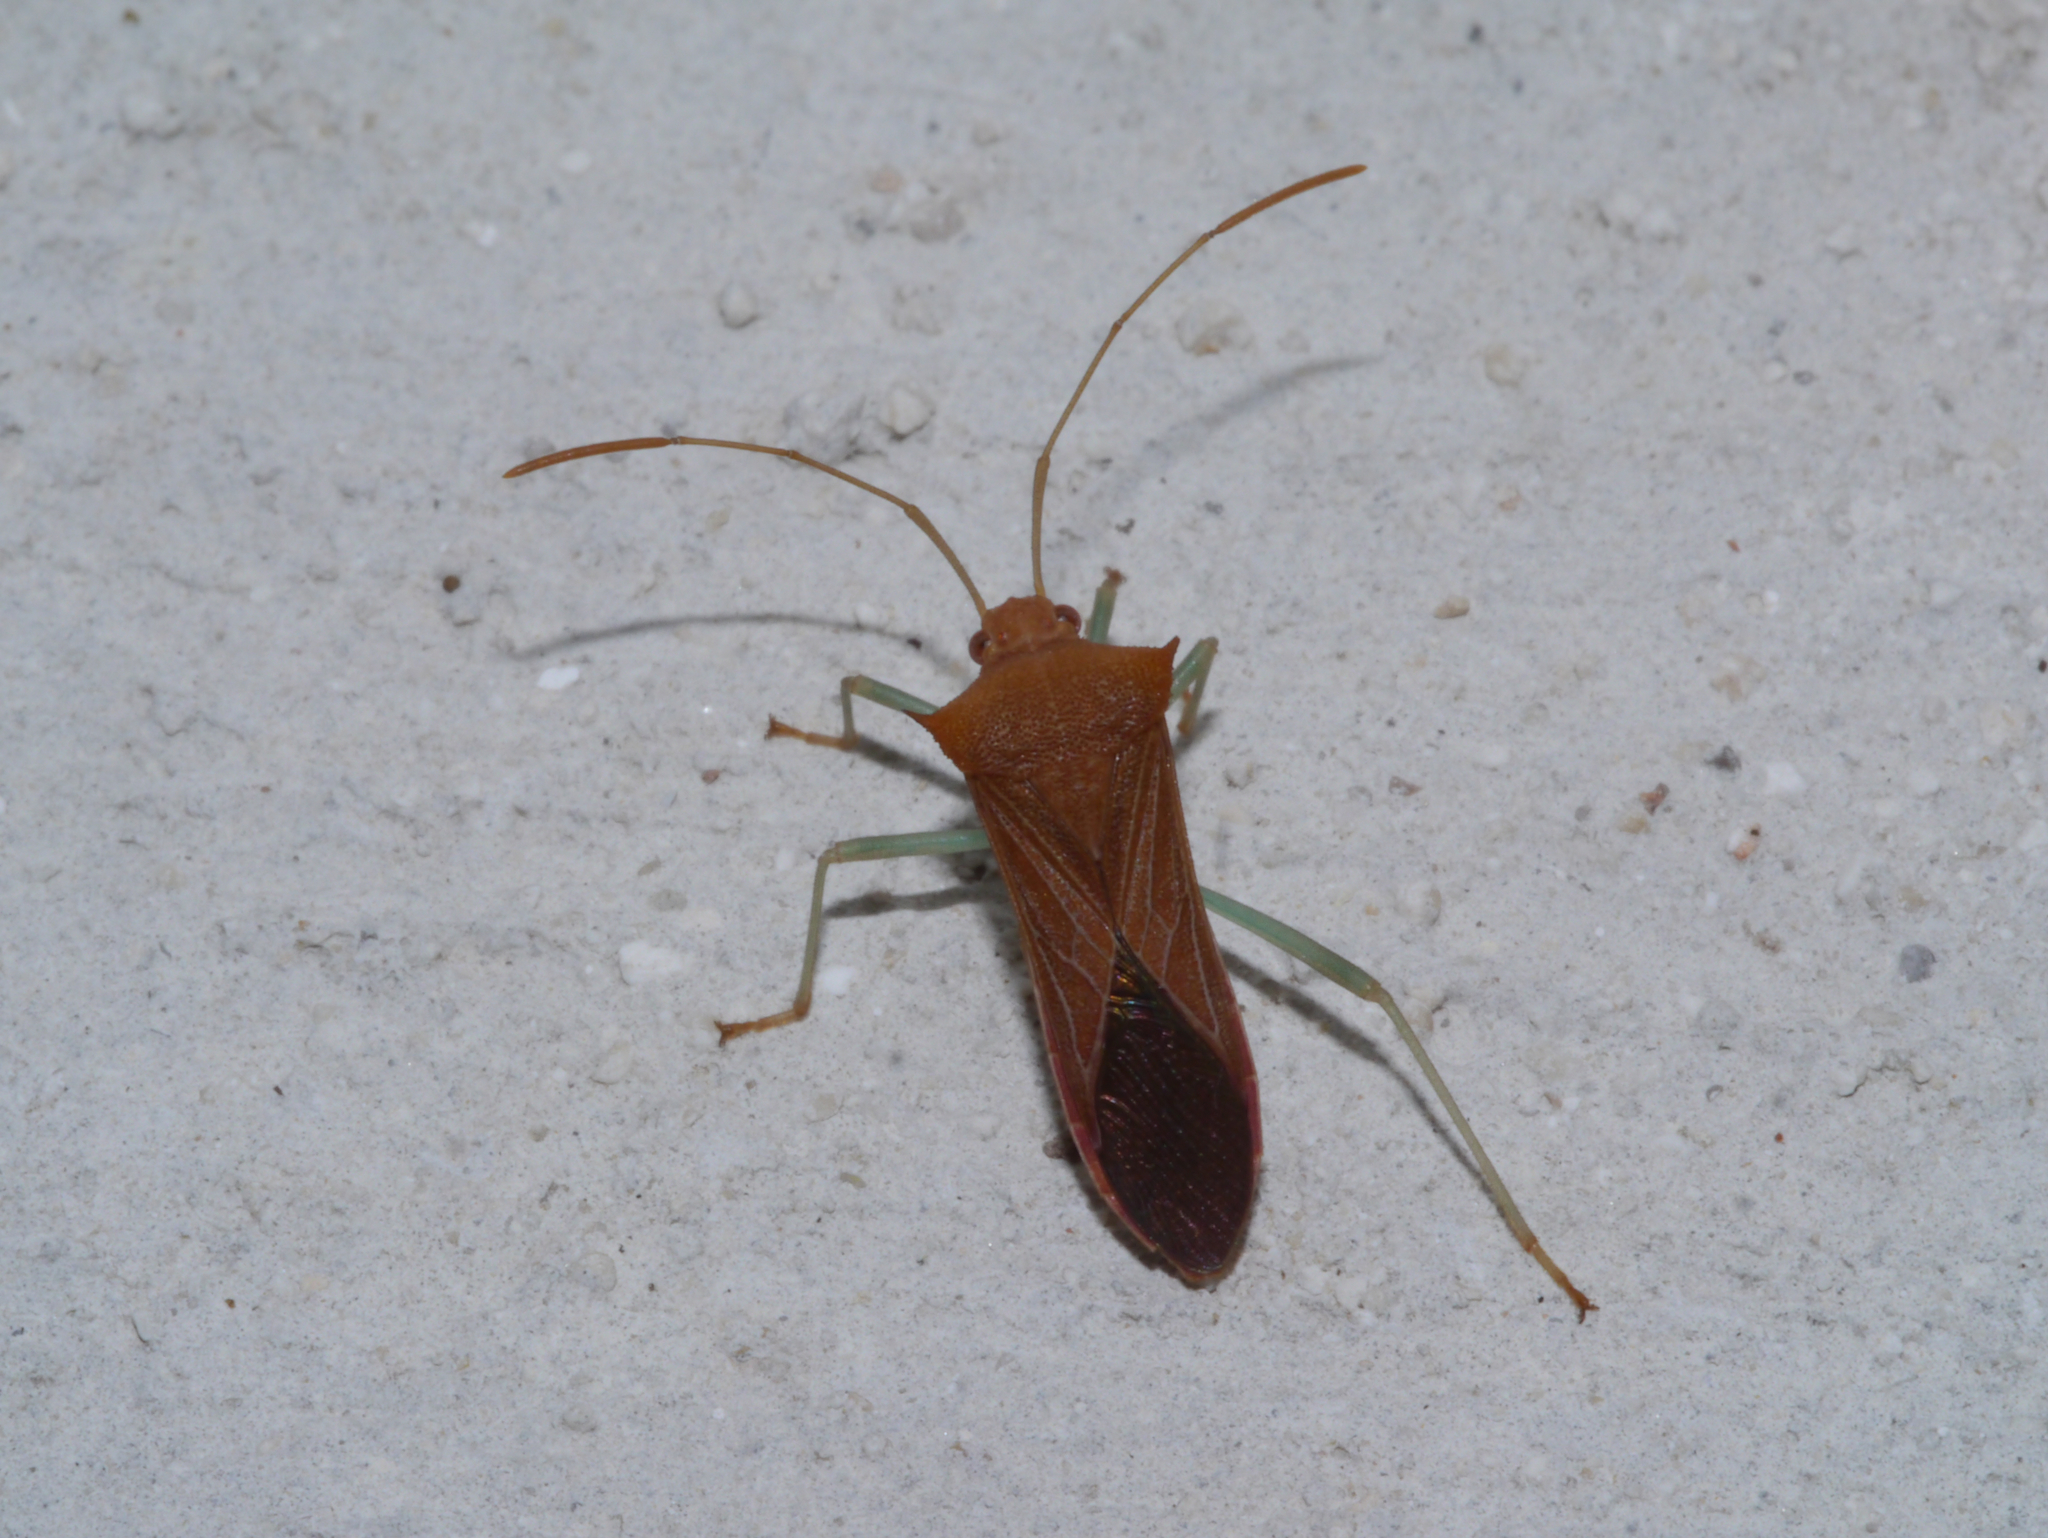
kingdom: Animalia
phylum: Arthropoda
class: Insecta
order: Hemiptera
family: Coreidae
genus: Daphnasa
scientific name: Daphnasa mucronata
